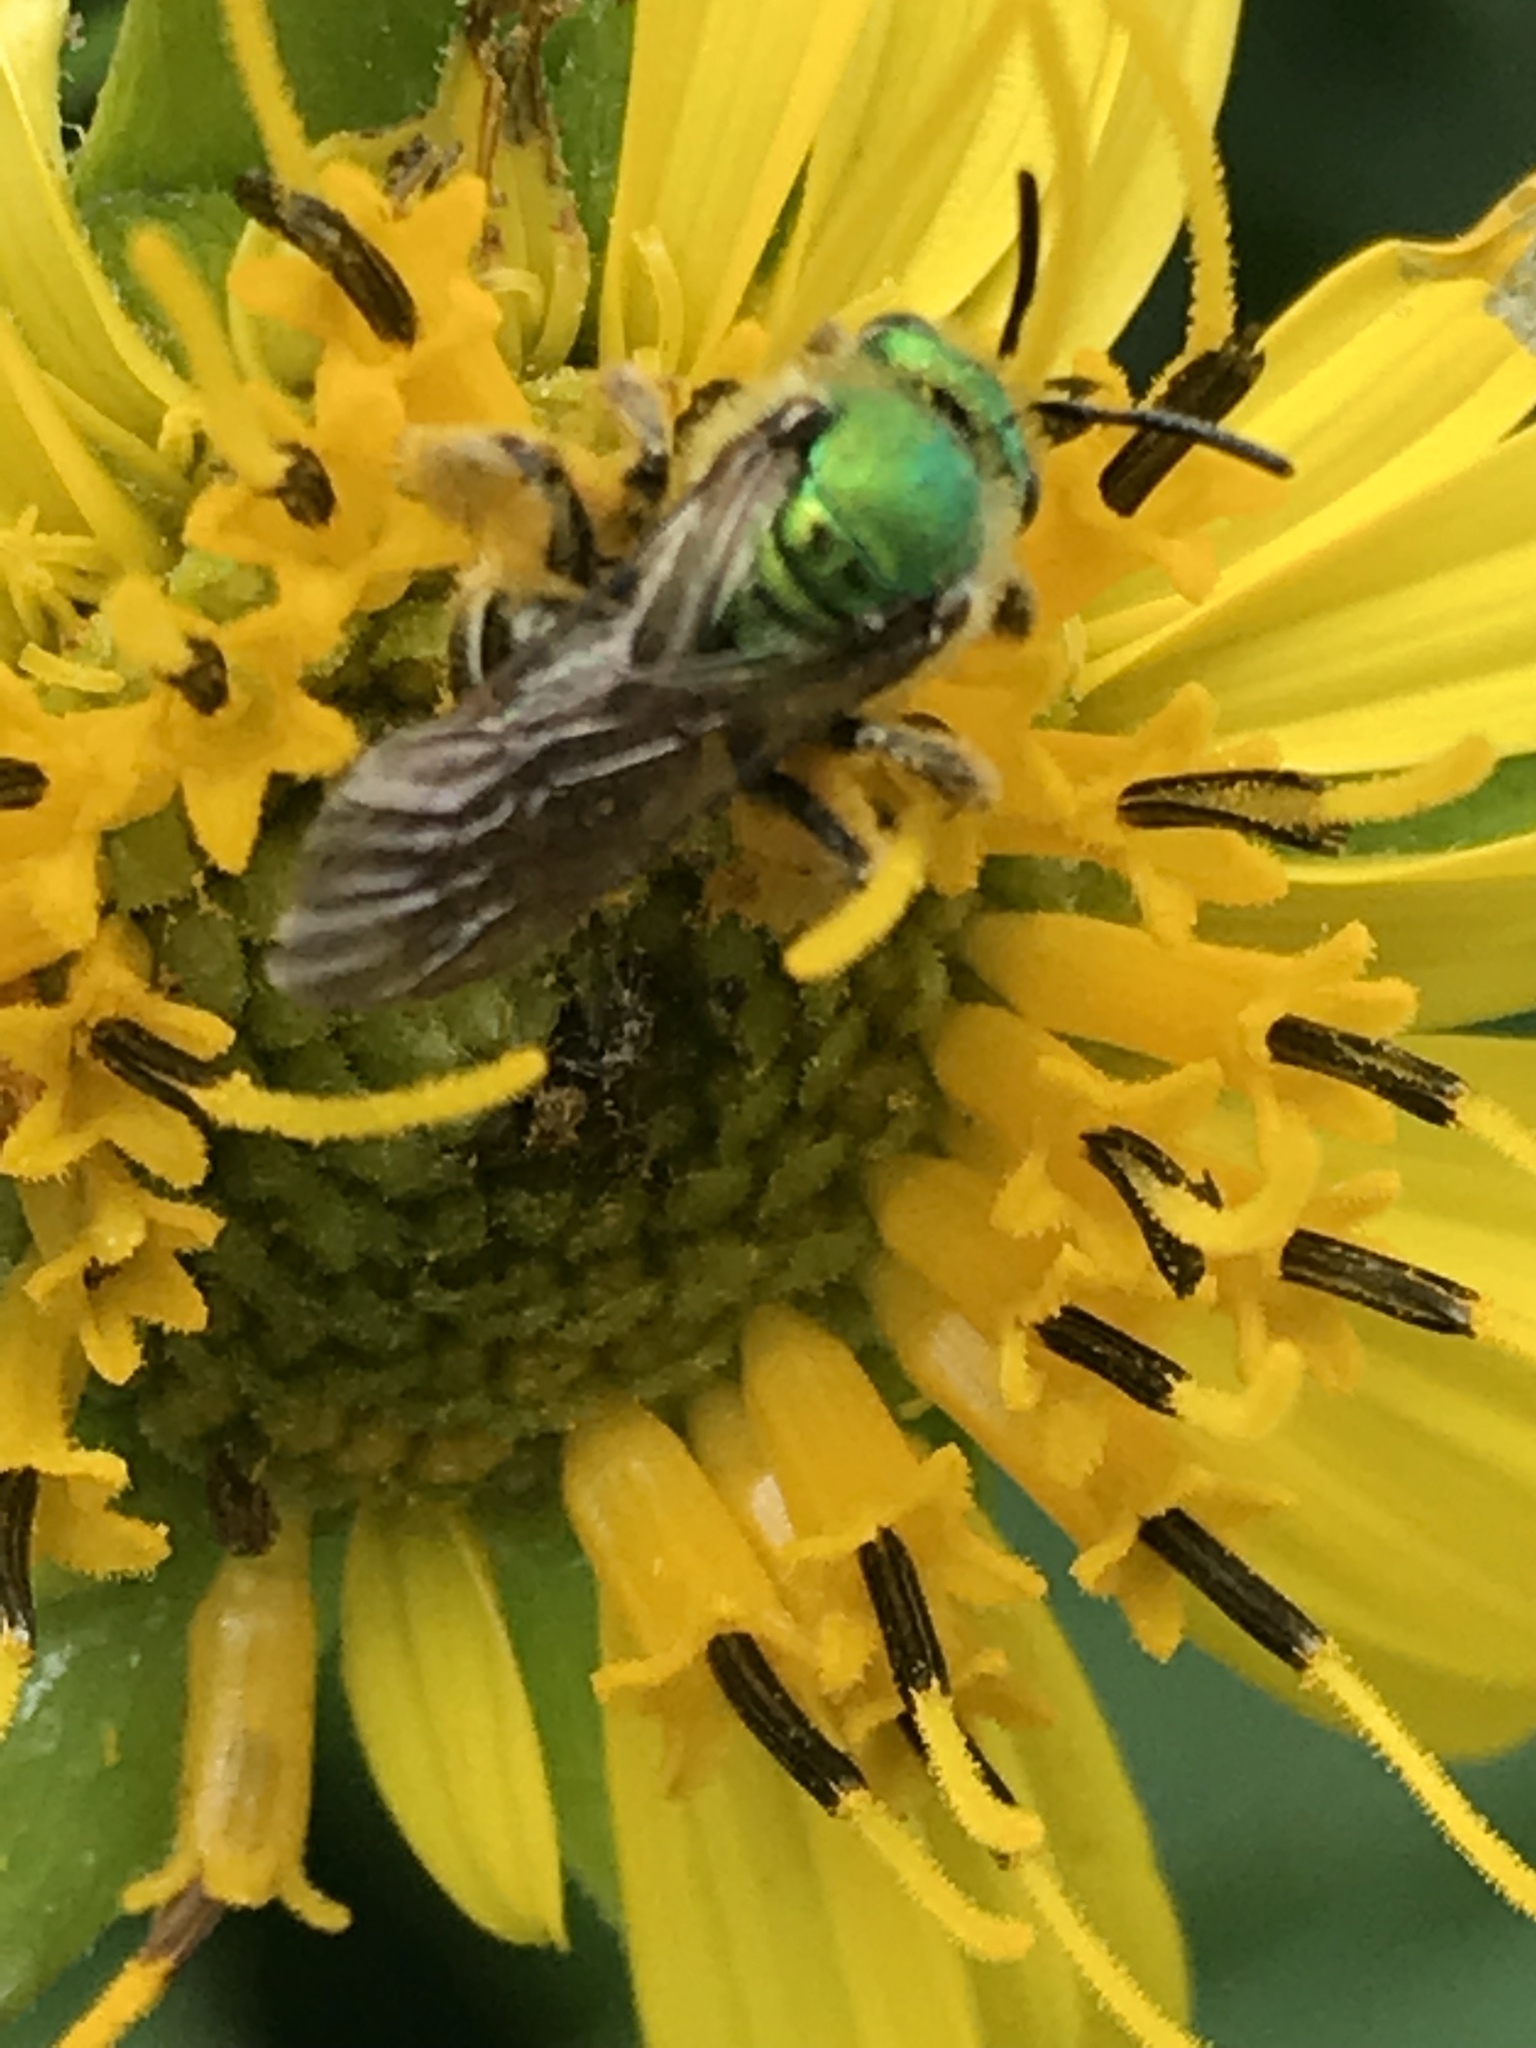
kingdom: Animalia
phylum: Arthropoda
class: Insecta
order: Hymenoptera
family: Halictidae
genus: Agapostemon
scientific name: Agapostemon virescens
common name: Bicolored striped sweat bee
